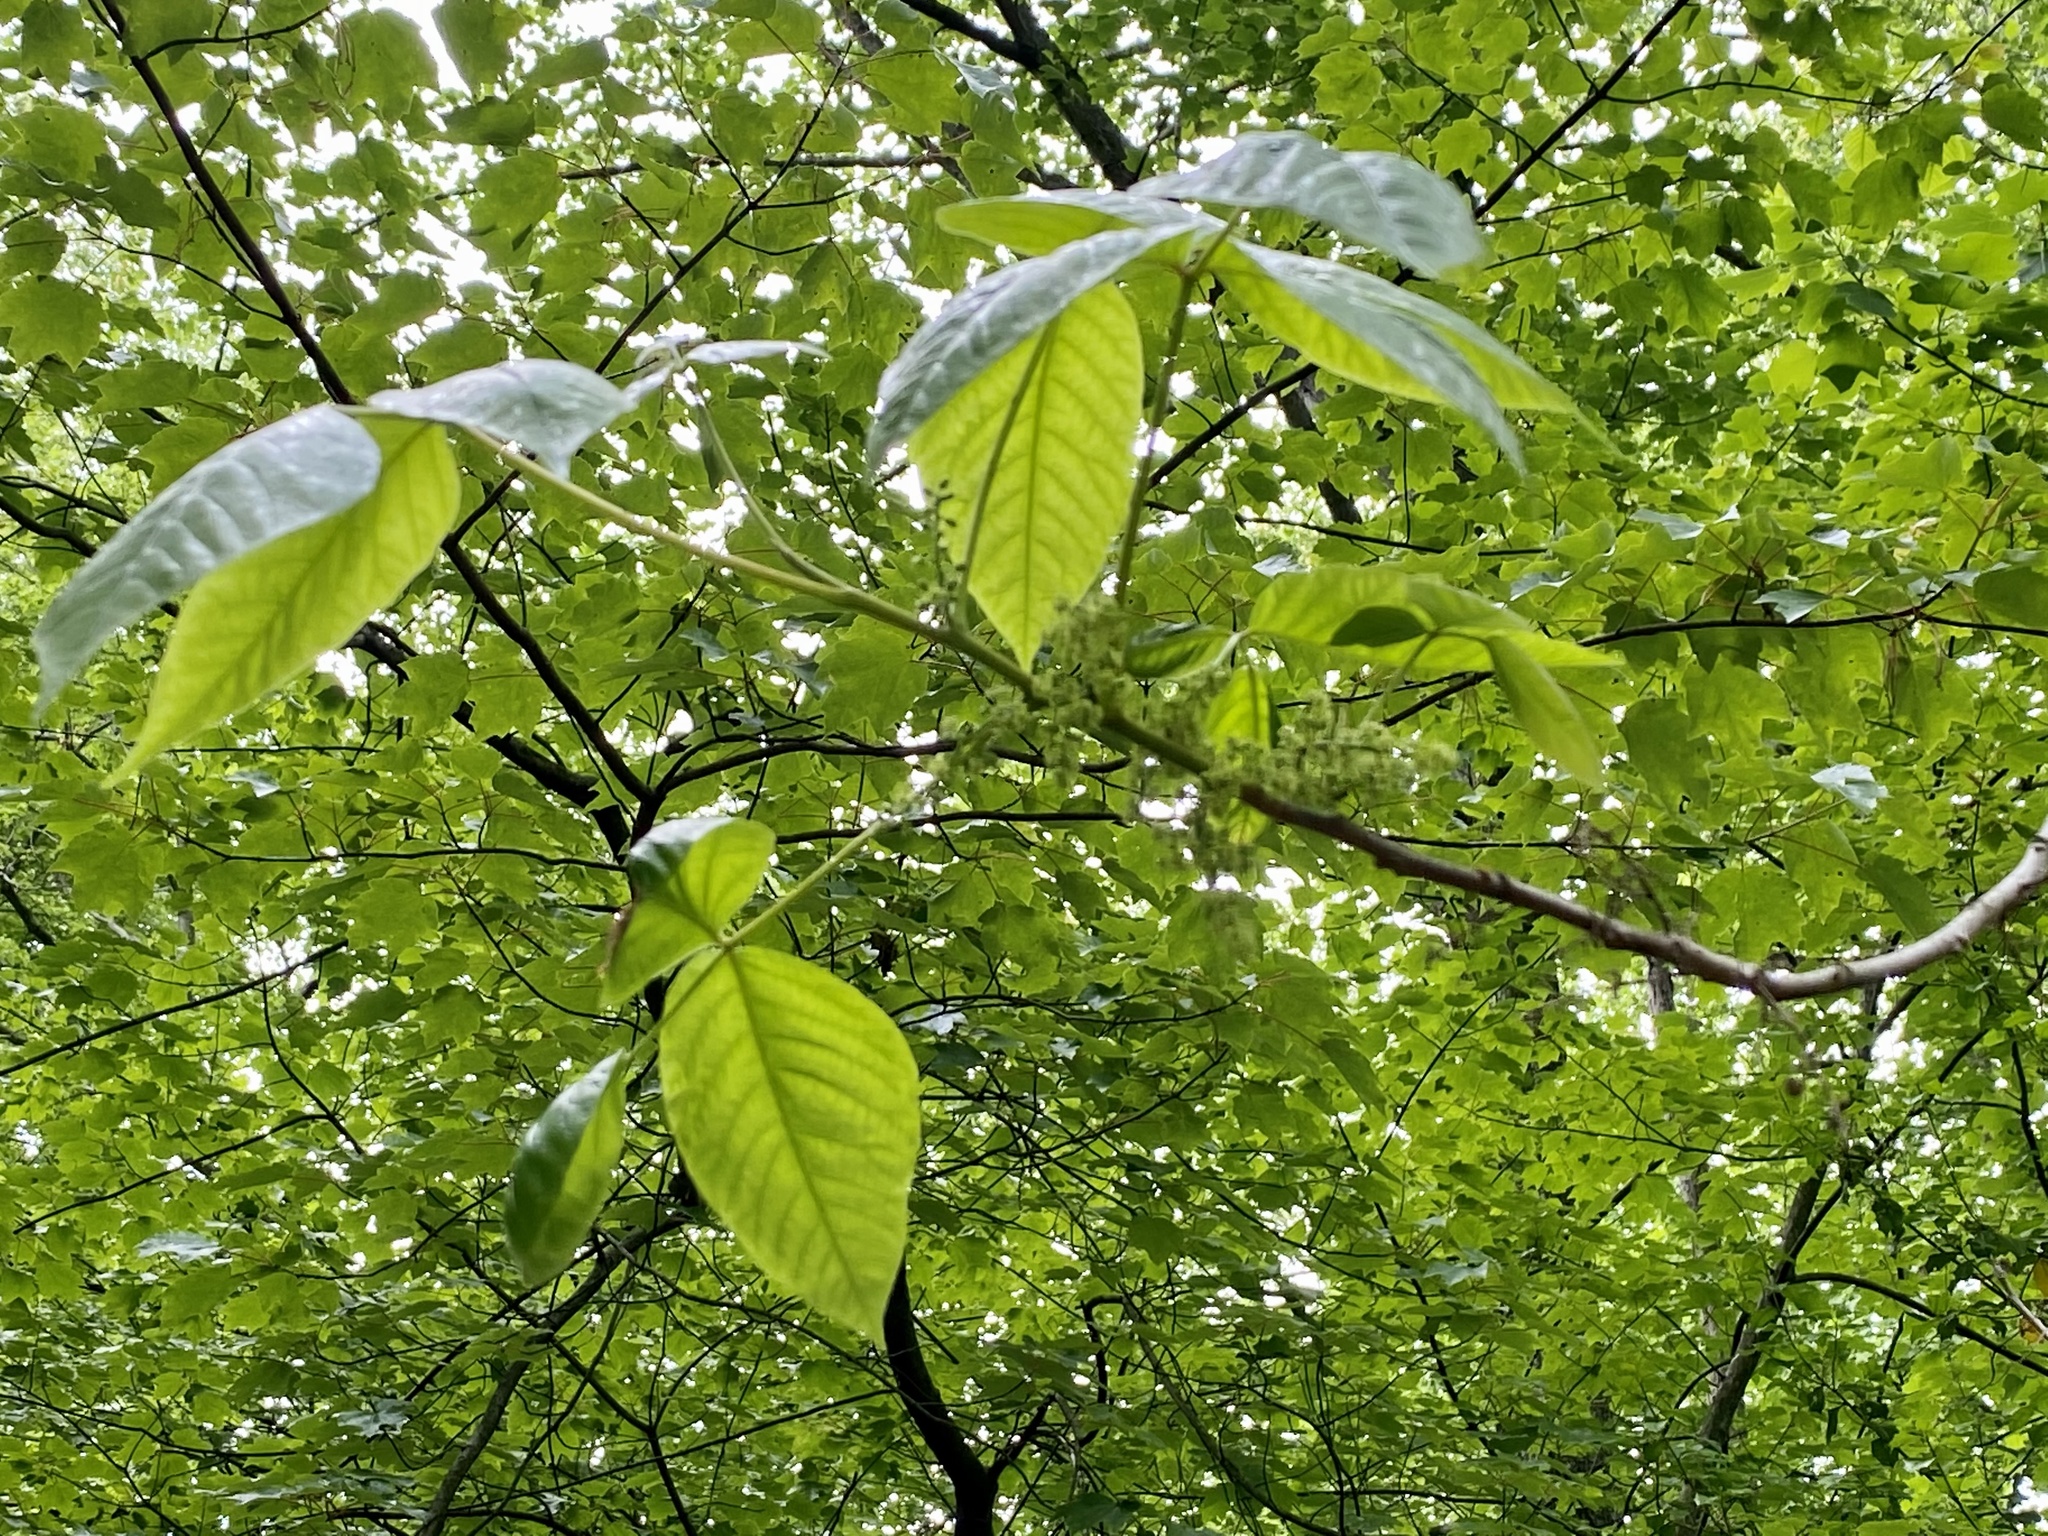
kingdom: Plantae
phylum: Tracheophyta
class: Magnoliopsida
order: Sapindales
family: Anacardiaceae
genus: Toxicodendron
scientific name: Toxicodendron radicans
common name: Poison ivy
